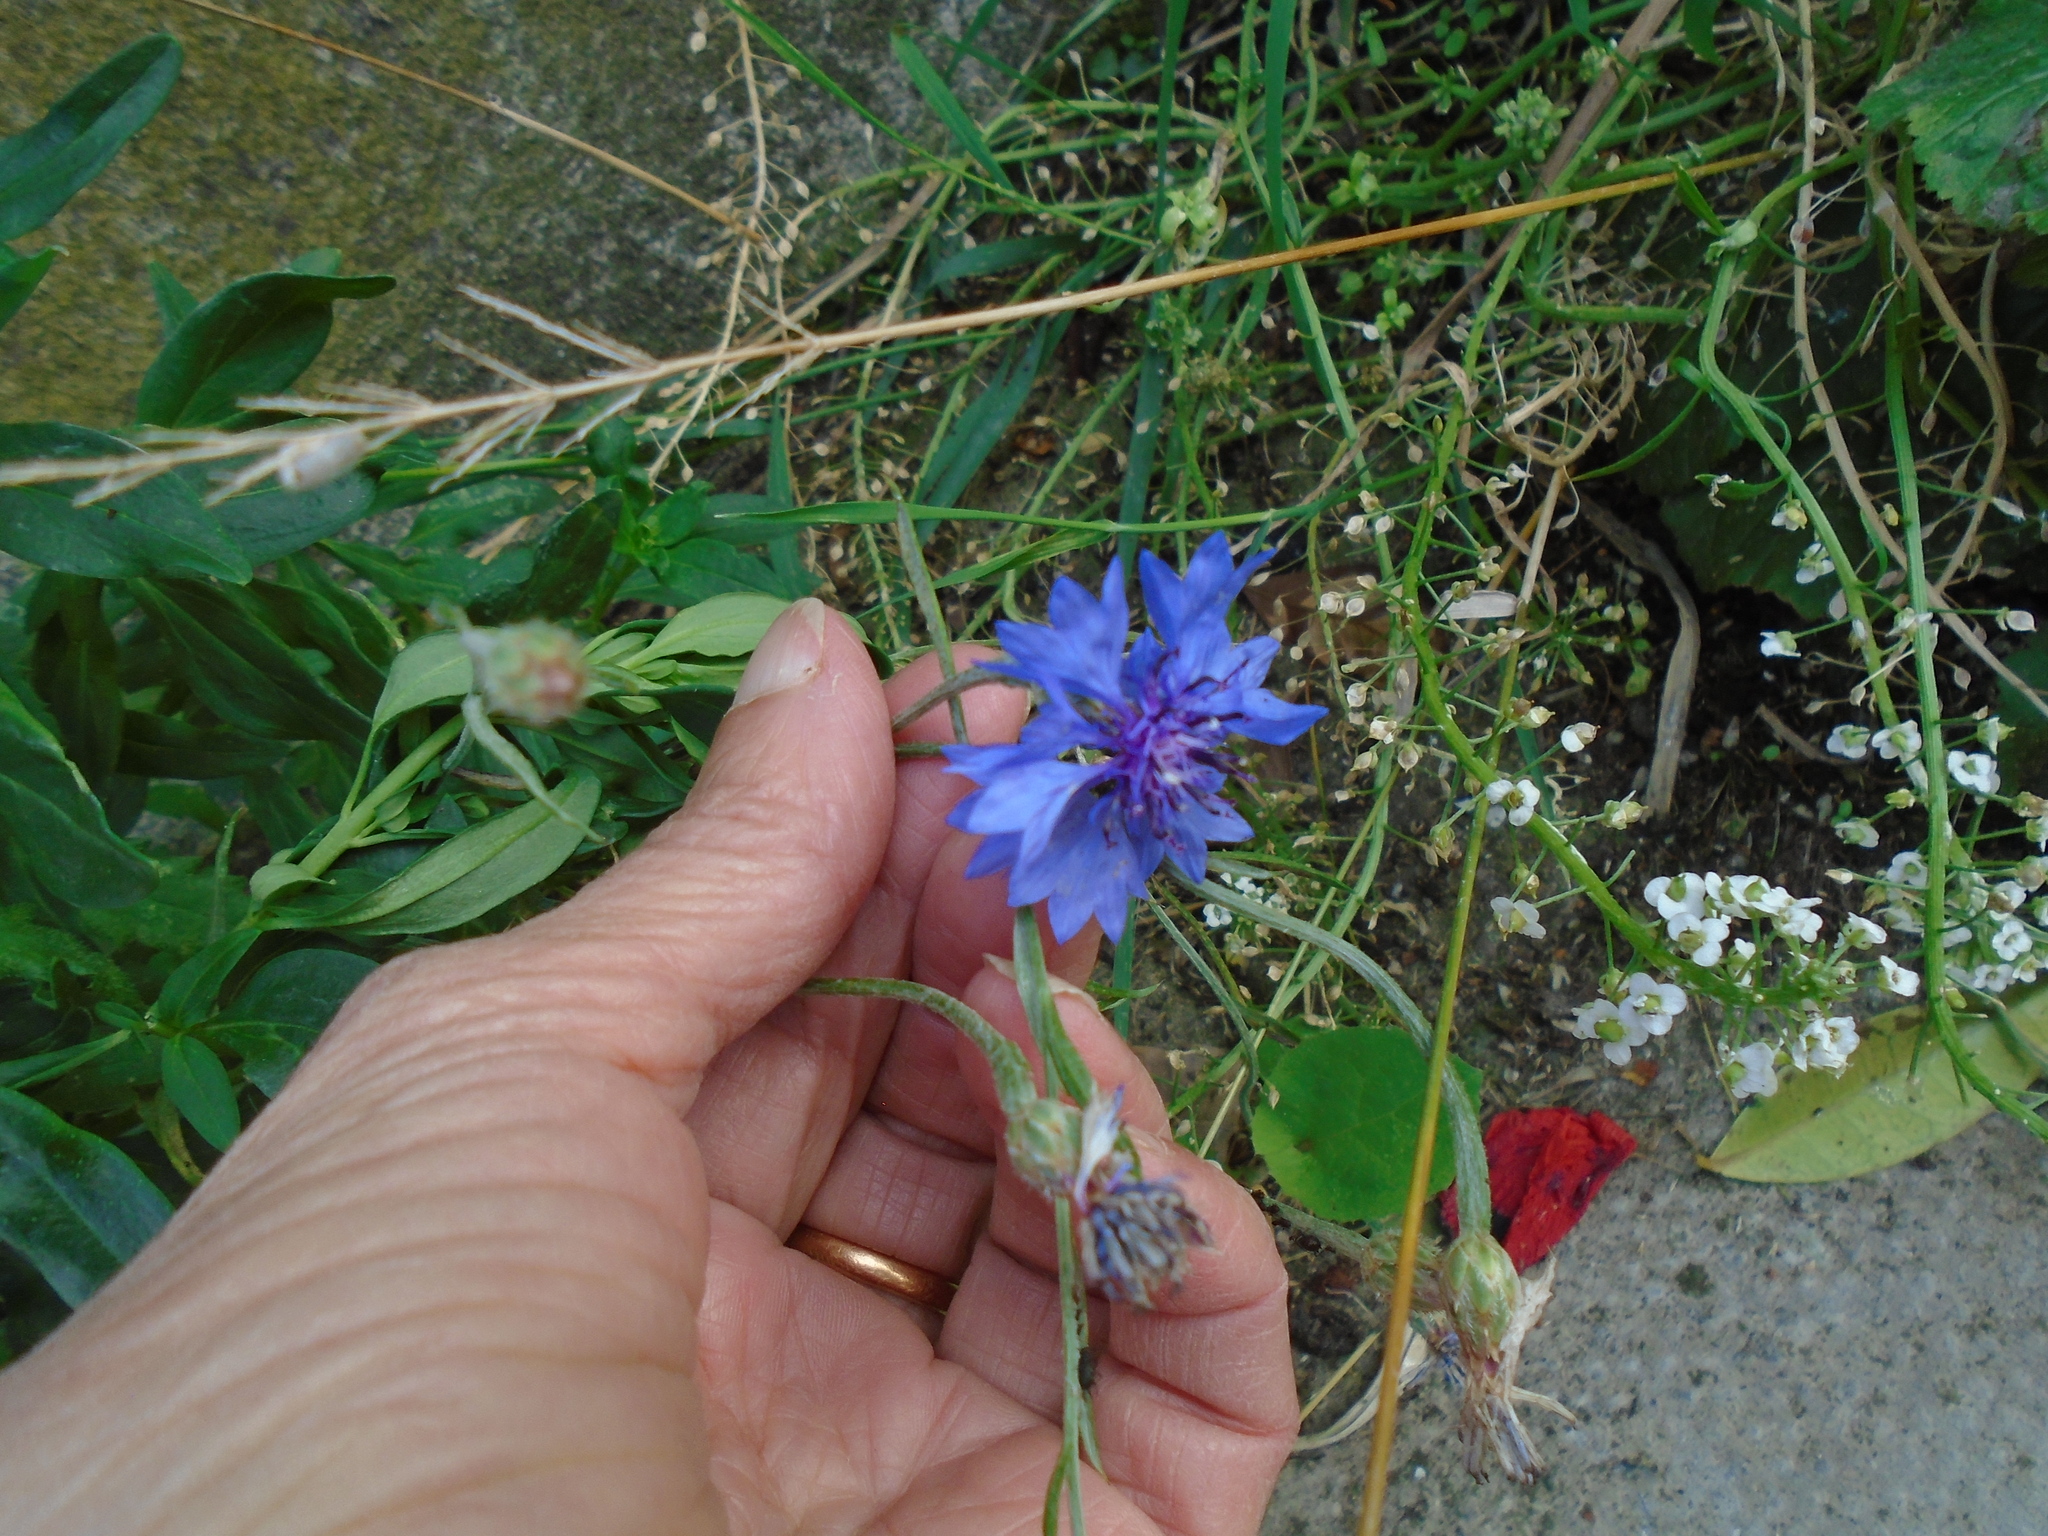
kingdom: Plantae
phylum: Tracheophyta
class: Magnoliopsida
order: Asterales
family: Asteraceae
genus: Centaurea
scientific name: Centaurea cyanus
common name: Cornflower
